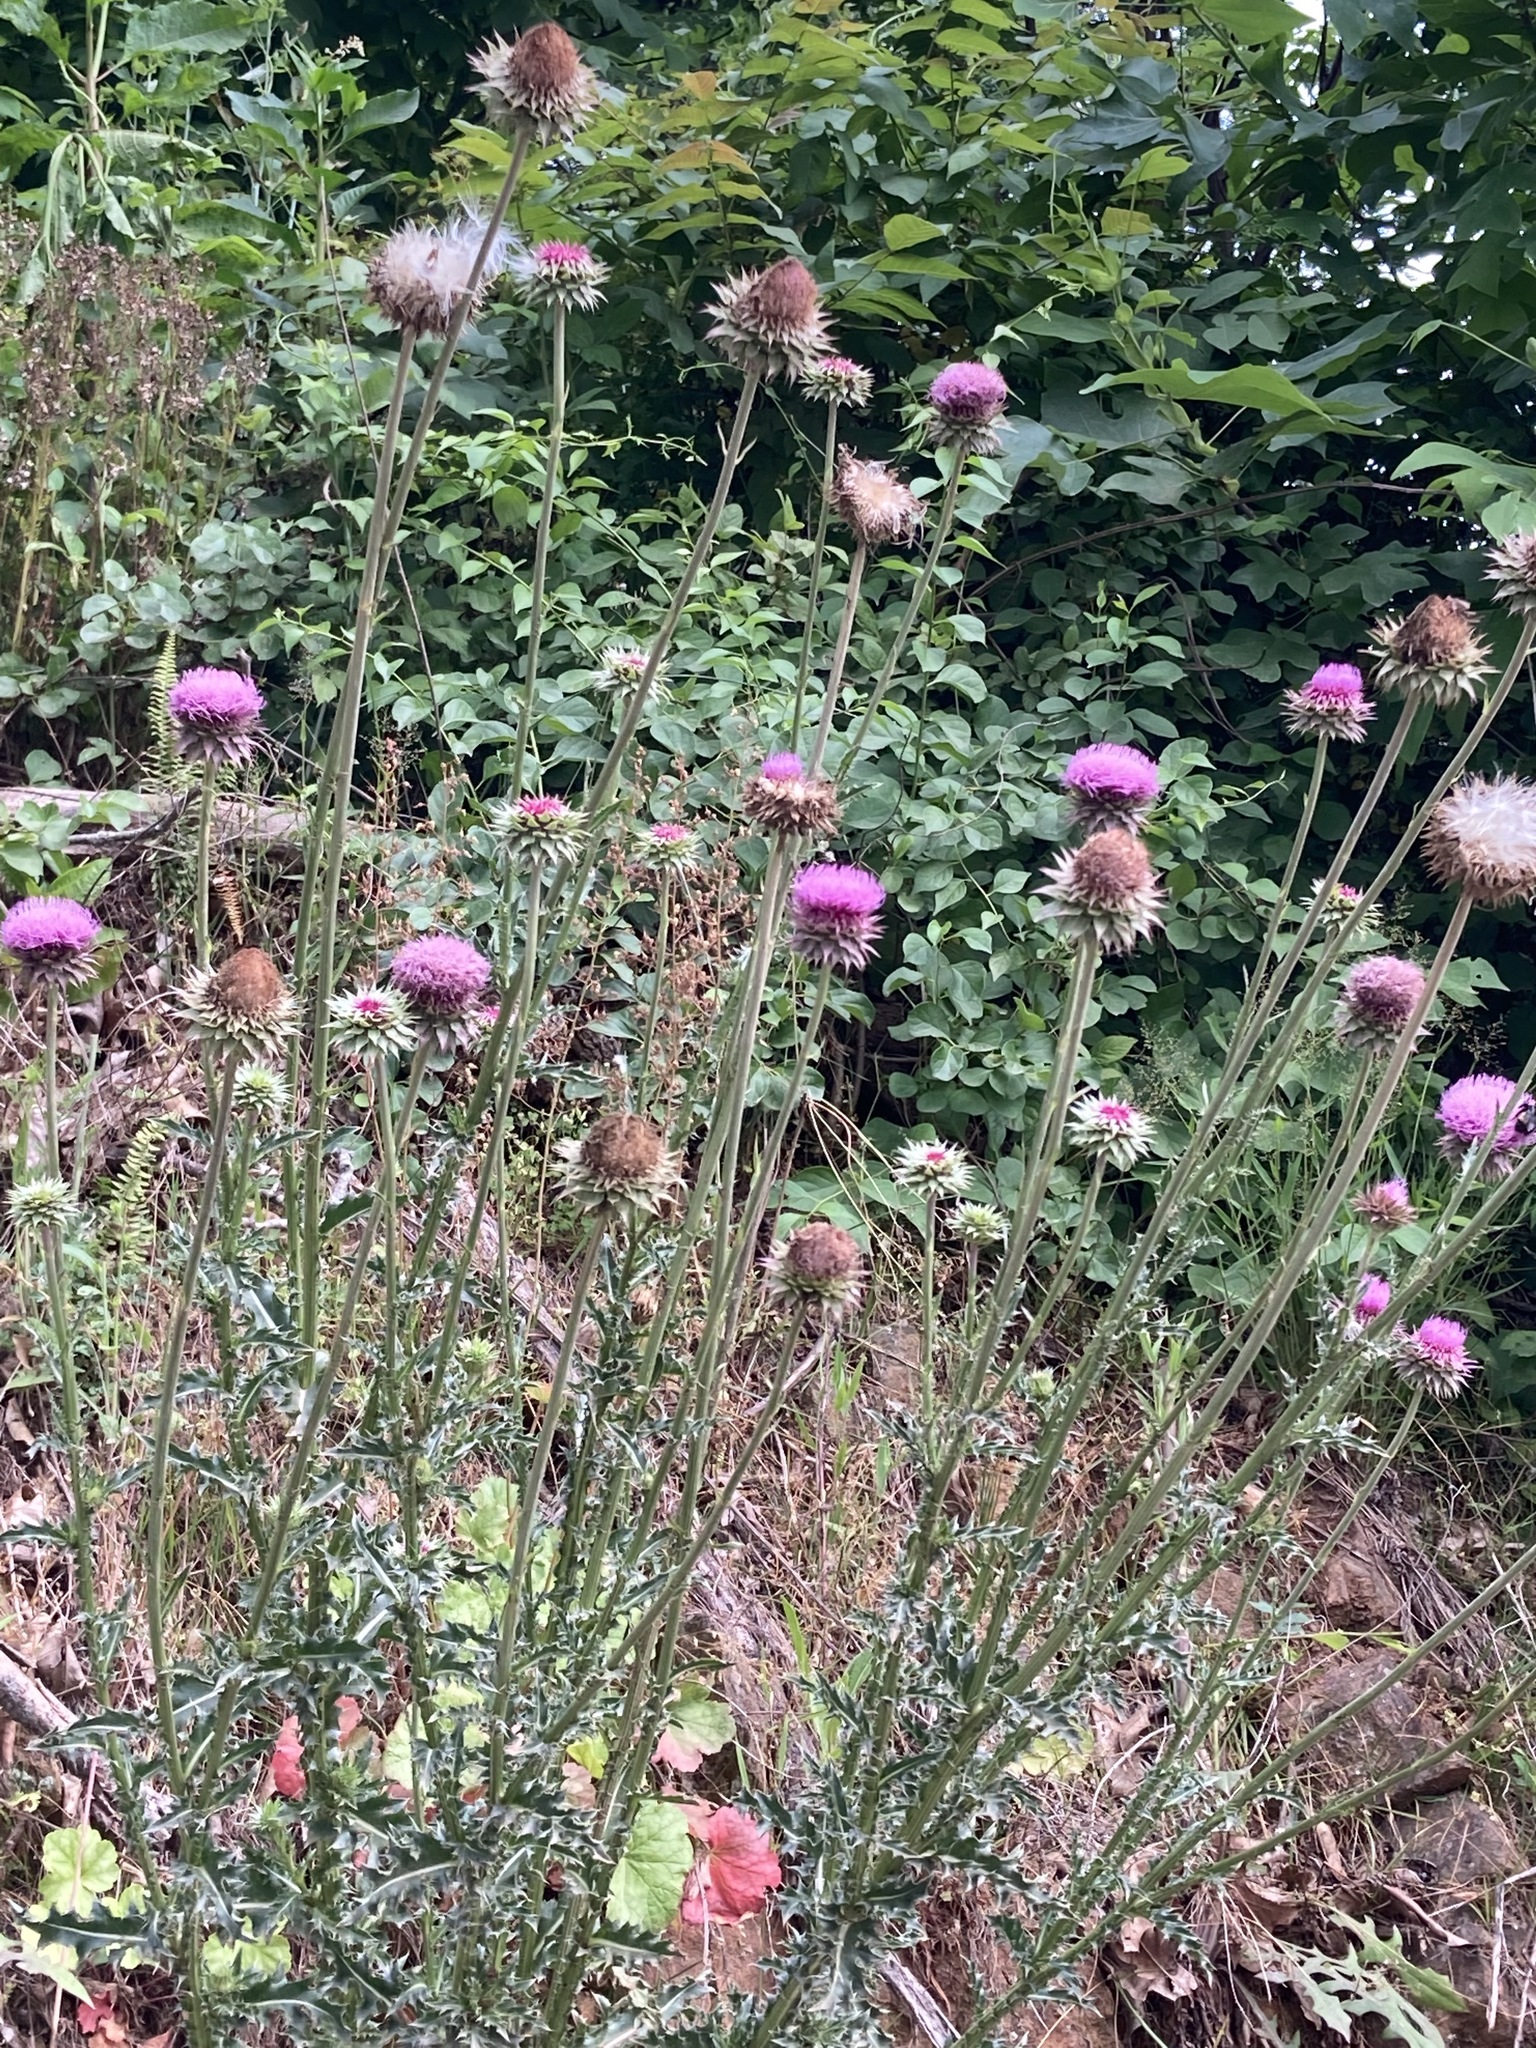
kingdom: Plantae
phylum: Tracheophyta
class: Magnoliopsida
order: Asterales
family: Asteraceae
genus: Carduus
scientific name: Carduus nutans
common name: Musk thistle
